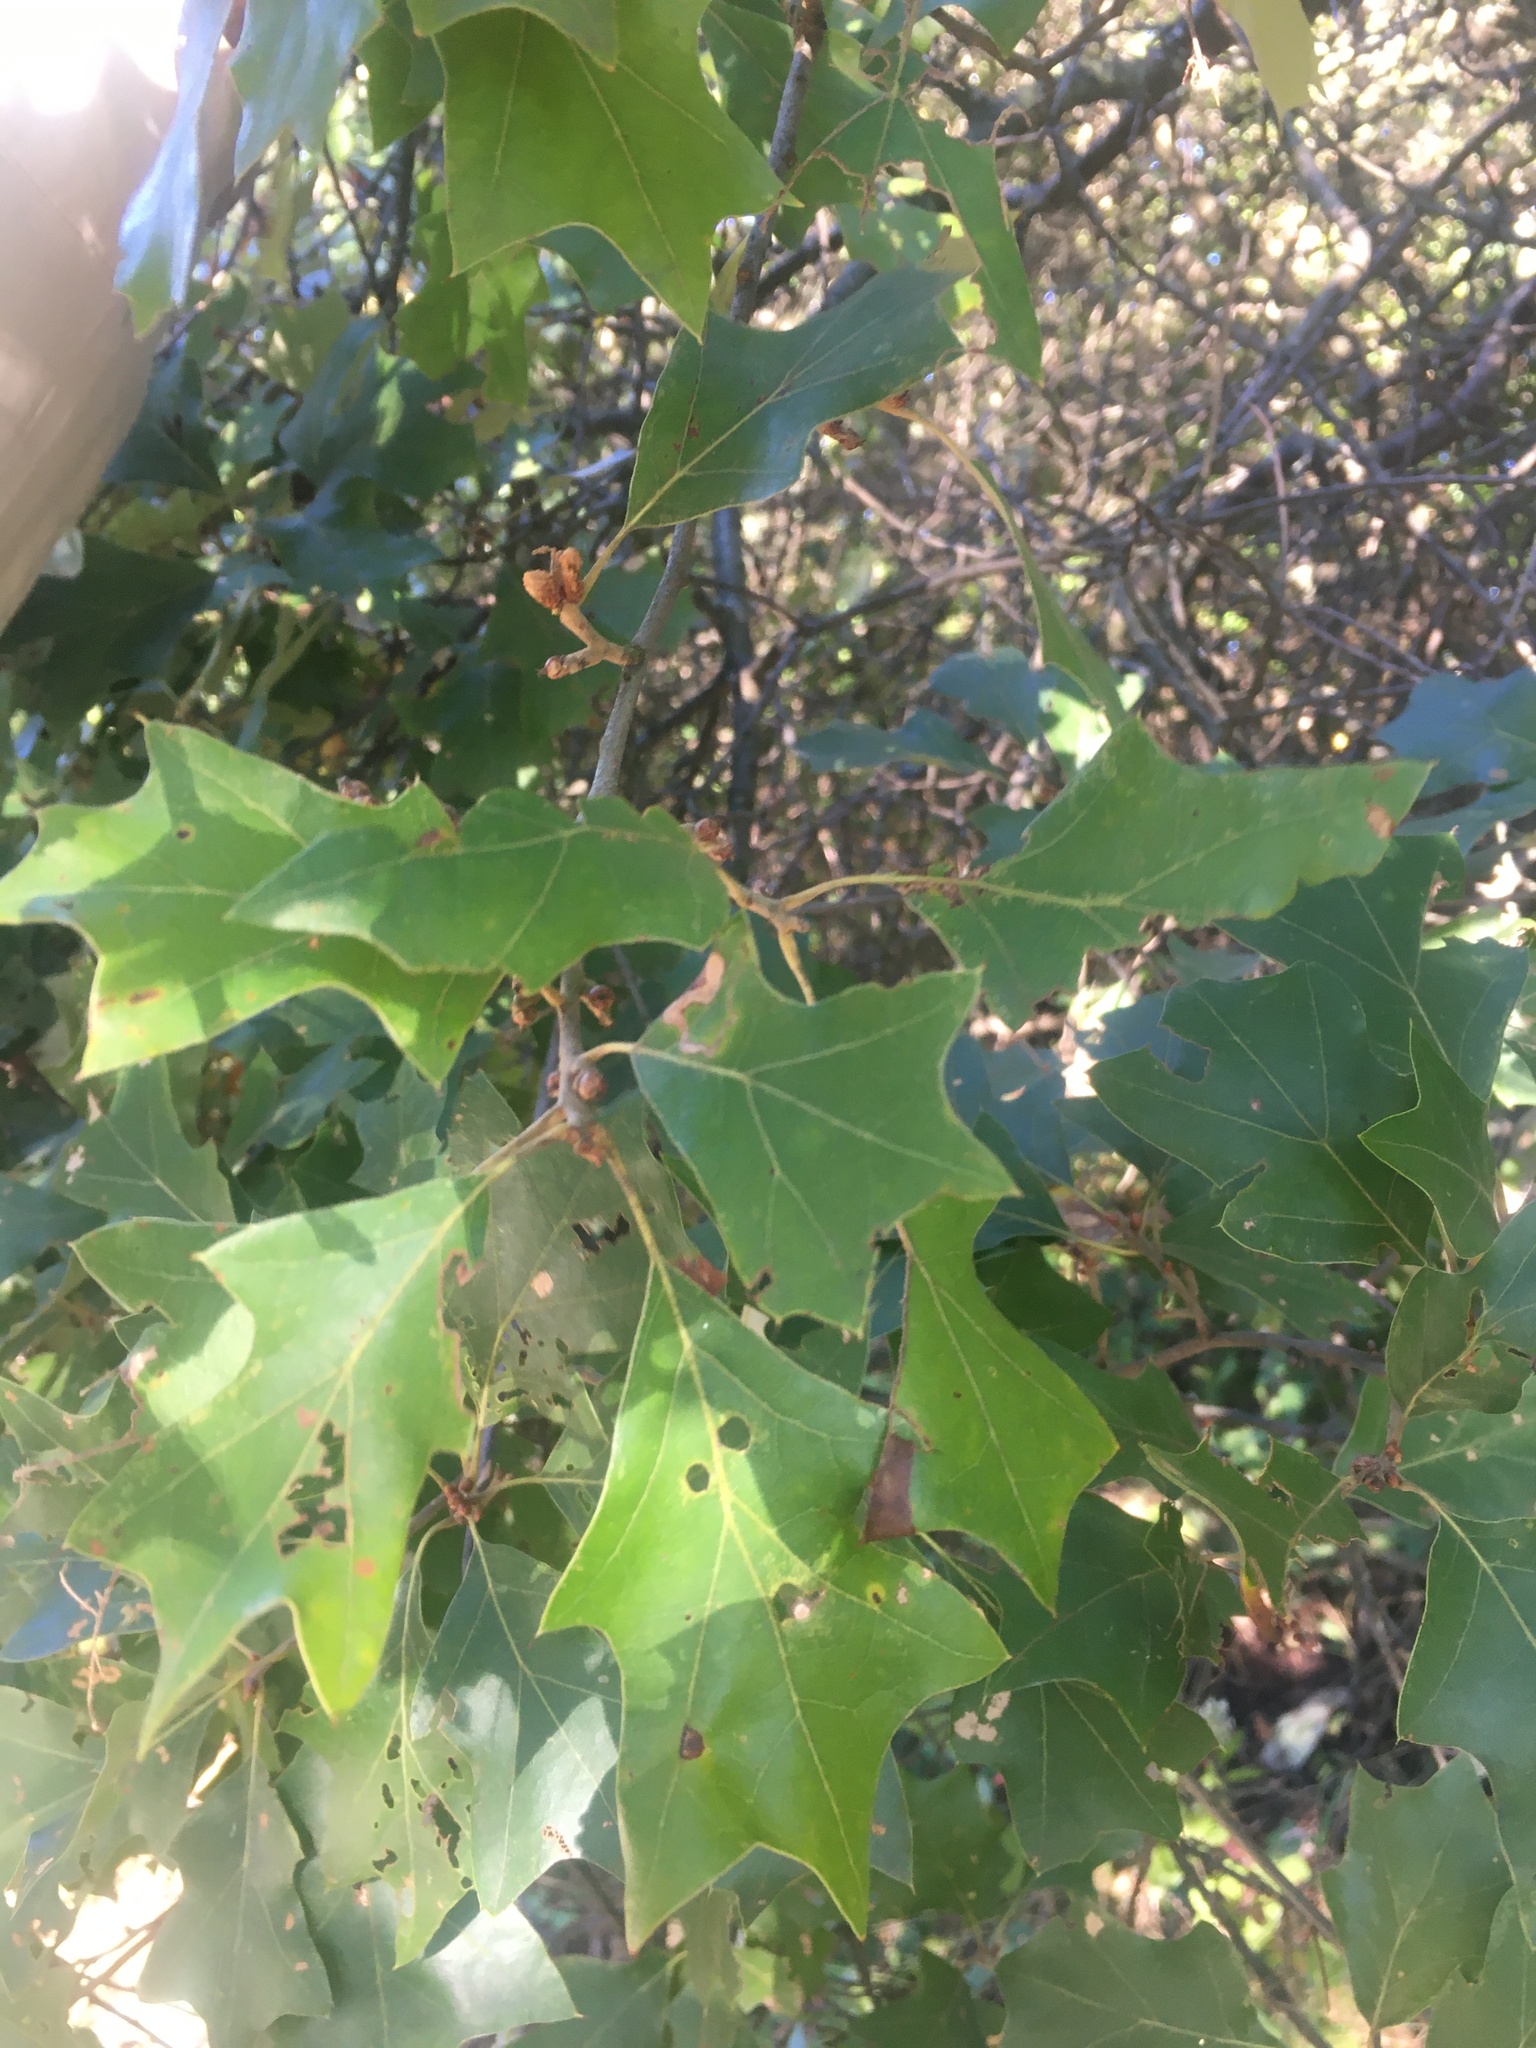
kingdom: Plantae
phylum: Tracheophyta
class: Magnoliopsida
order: Fagales
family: Fagaceae
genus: Quercus
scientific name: Quercus ilicifolia
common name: Bear oak
